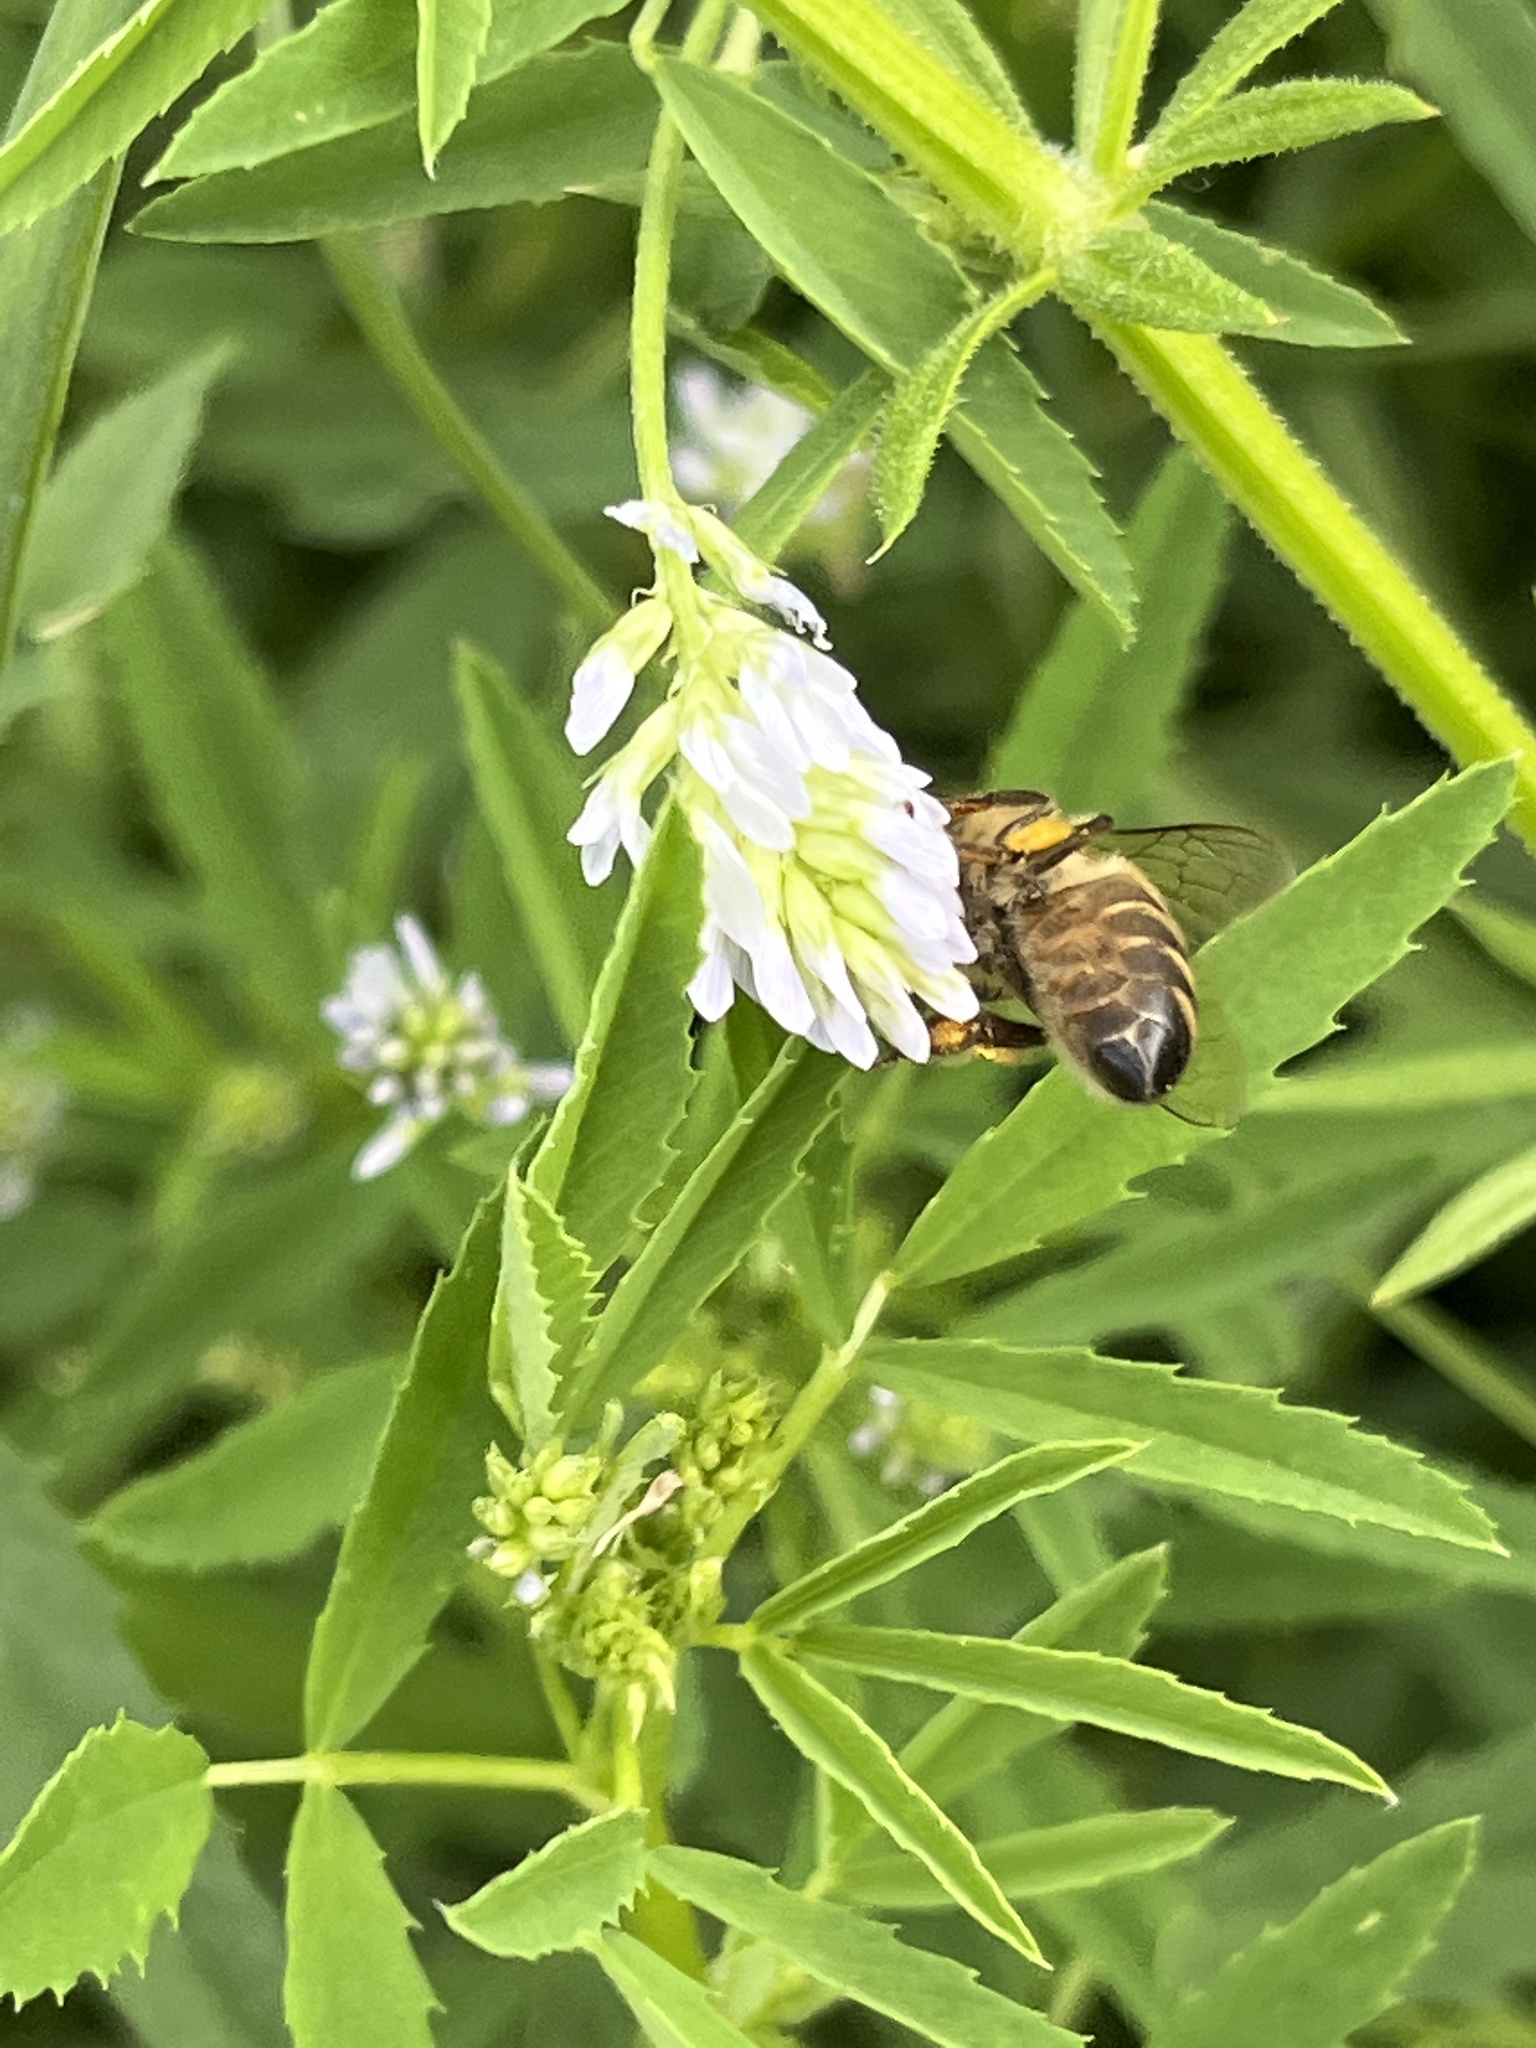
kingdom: Animalia
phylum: Arthropoda
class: Insecta
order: Hymenoptera
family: Apidae
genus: Apis
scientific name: Apis mellifera
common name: Honey bee
